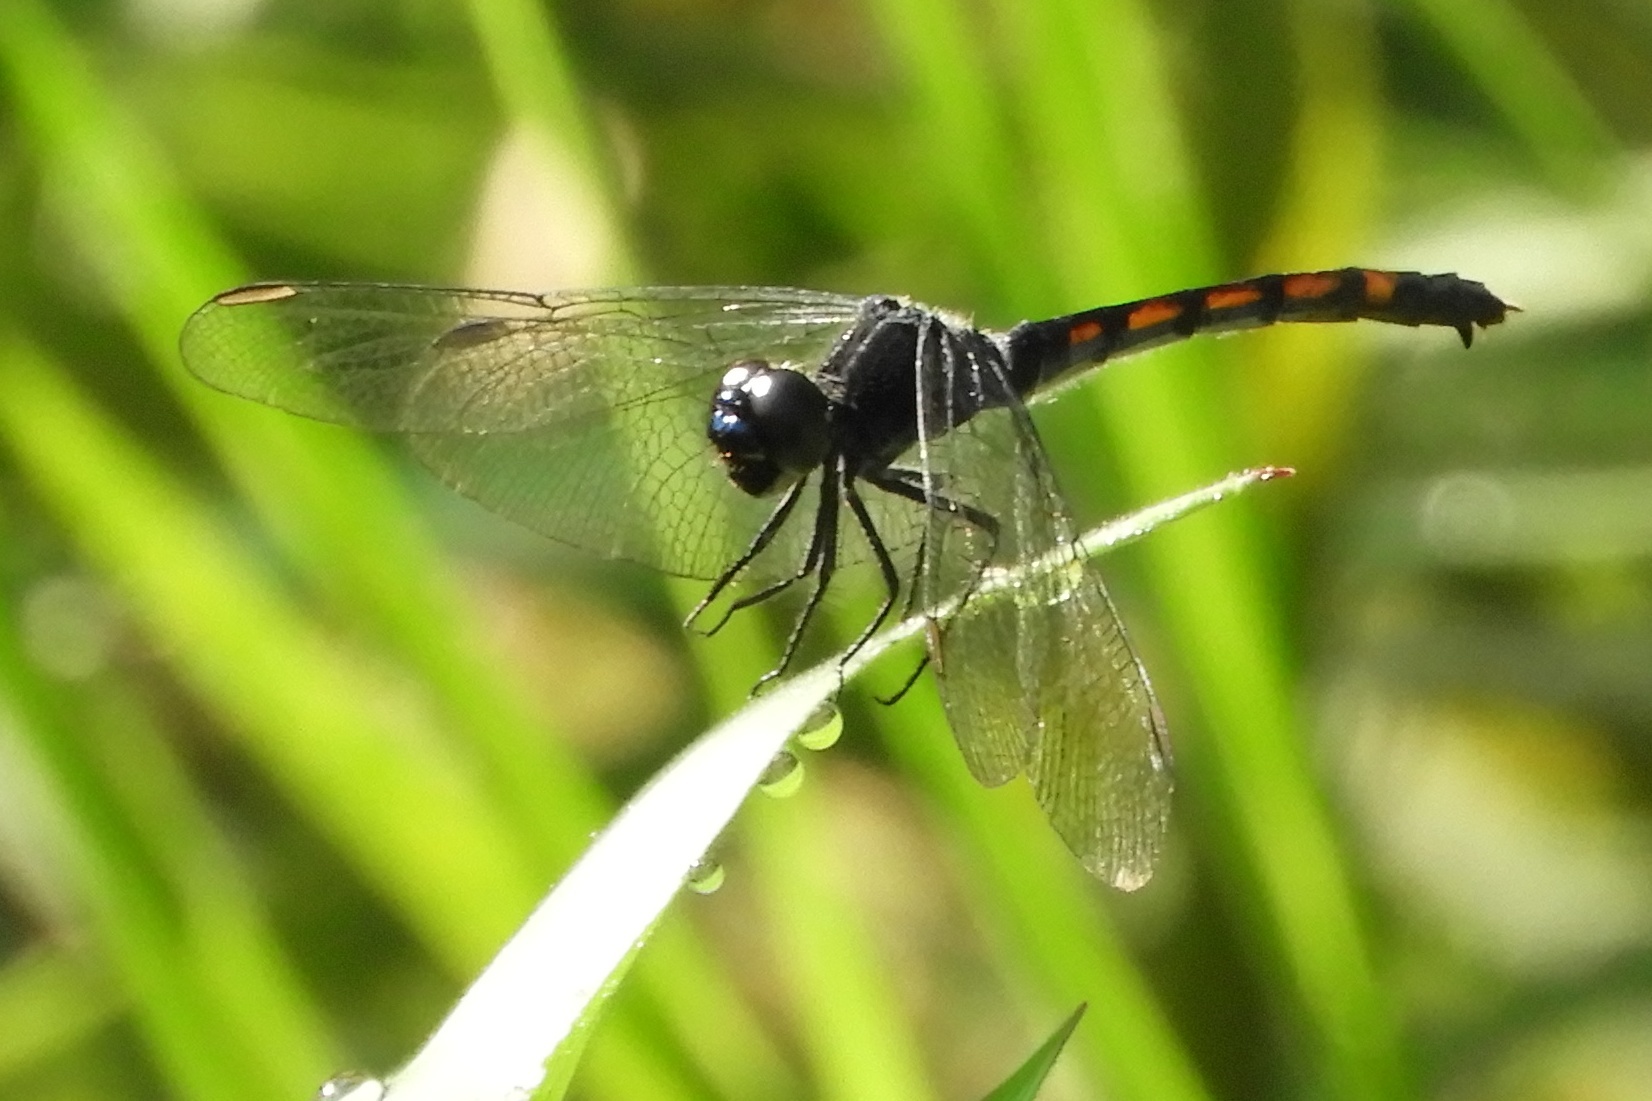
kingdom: Animalia
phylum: Arthropoda
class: Insecta
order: Odonata
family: Libellulidae
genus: Erythrodiplax
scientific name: Erythrodiplax berenice
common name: Seaside dragonlet
